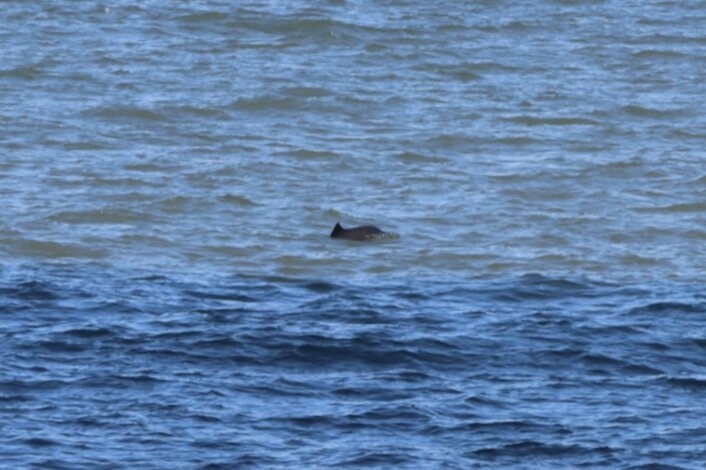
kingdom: Animalia
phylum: Chordata
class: Mammalia
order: Cetacea
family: Phocoenidae
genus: Phocoena
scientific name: Phocoena phocoena
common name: Harbor porpoise
